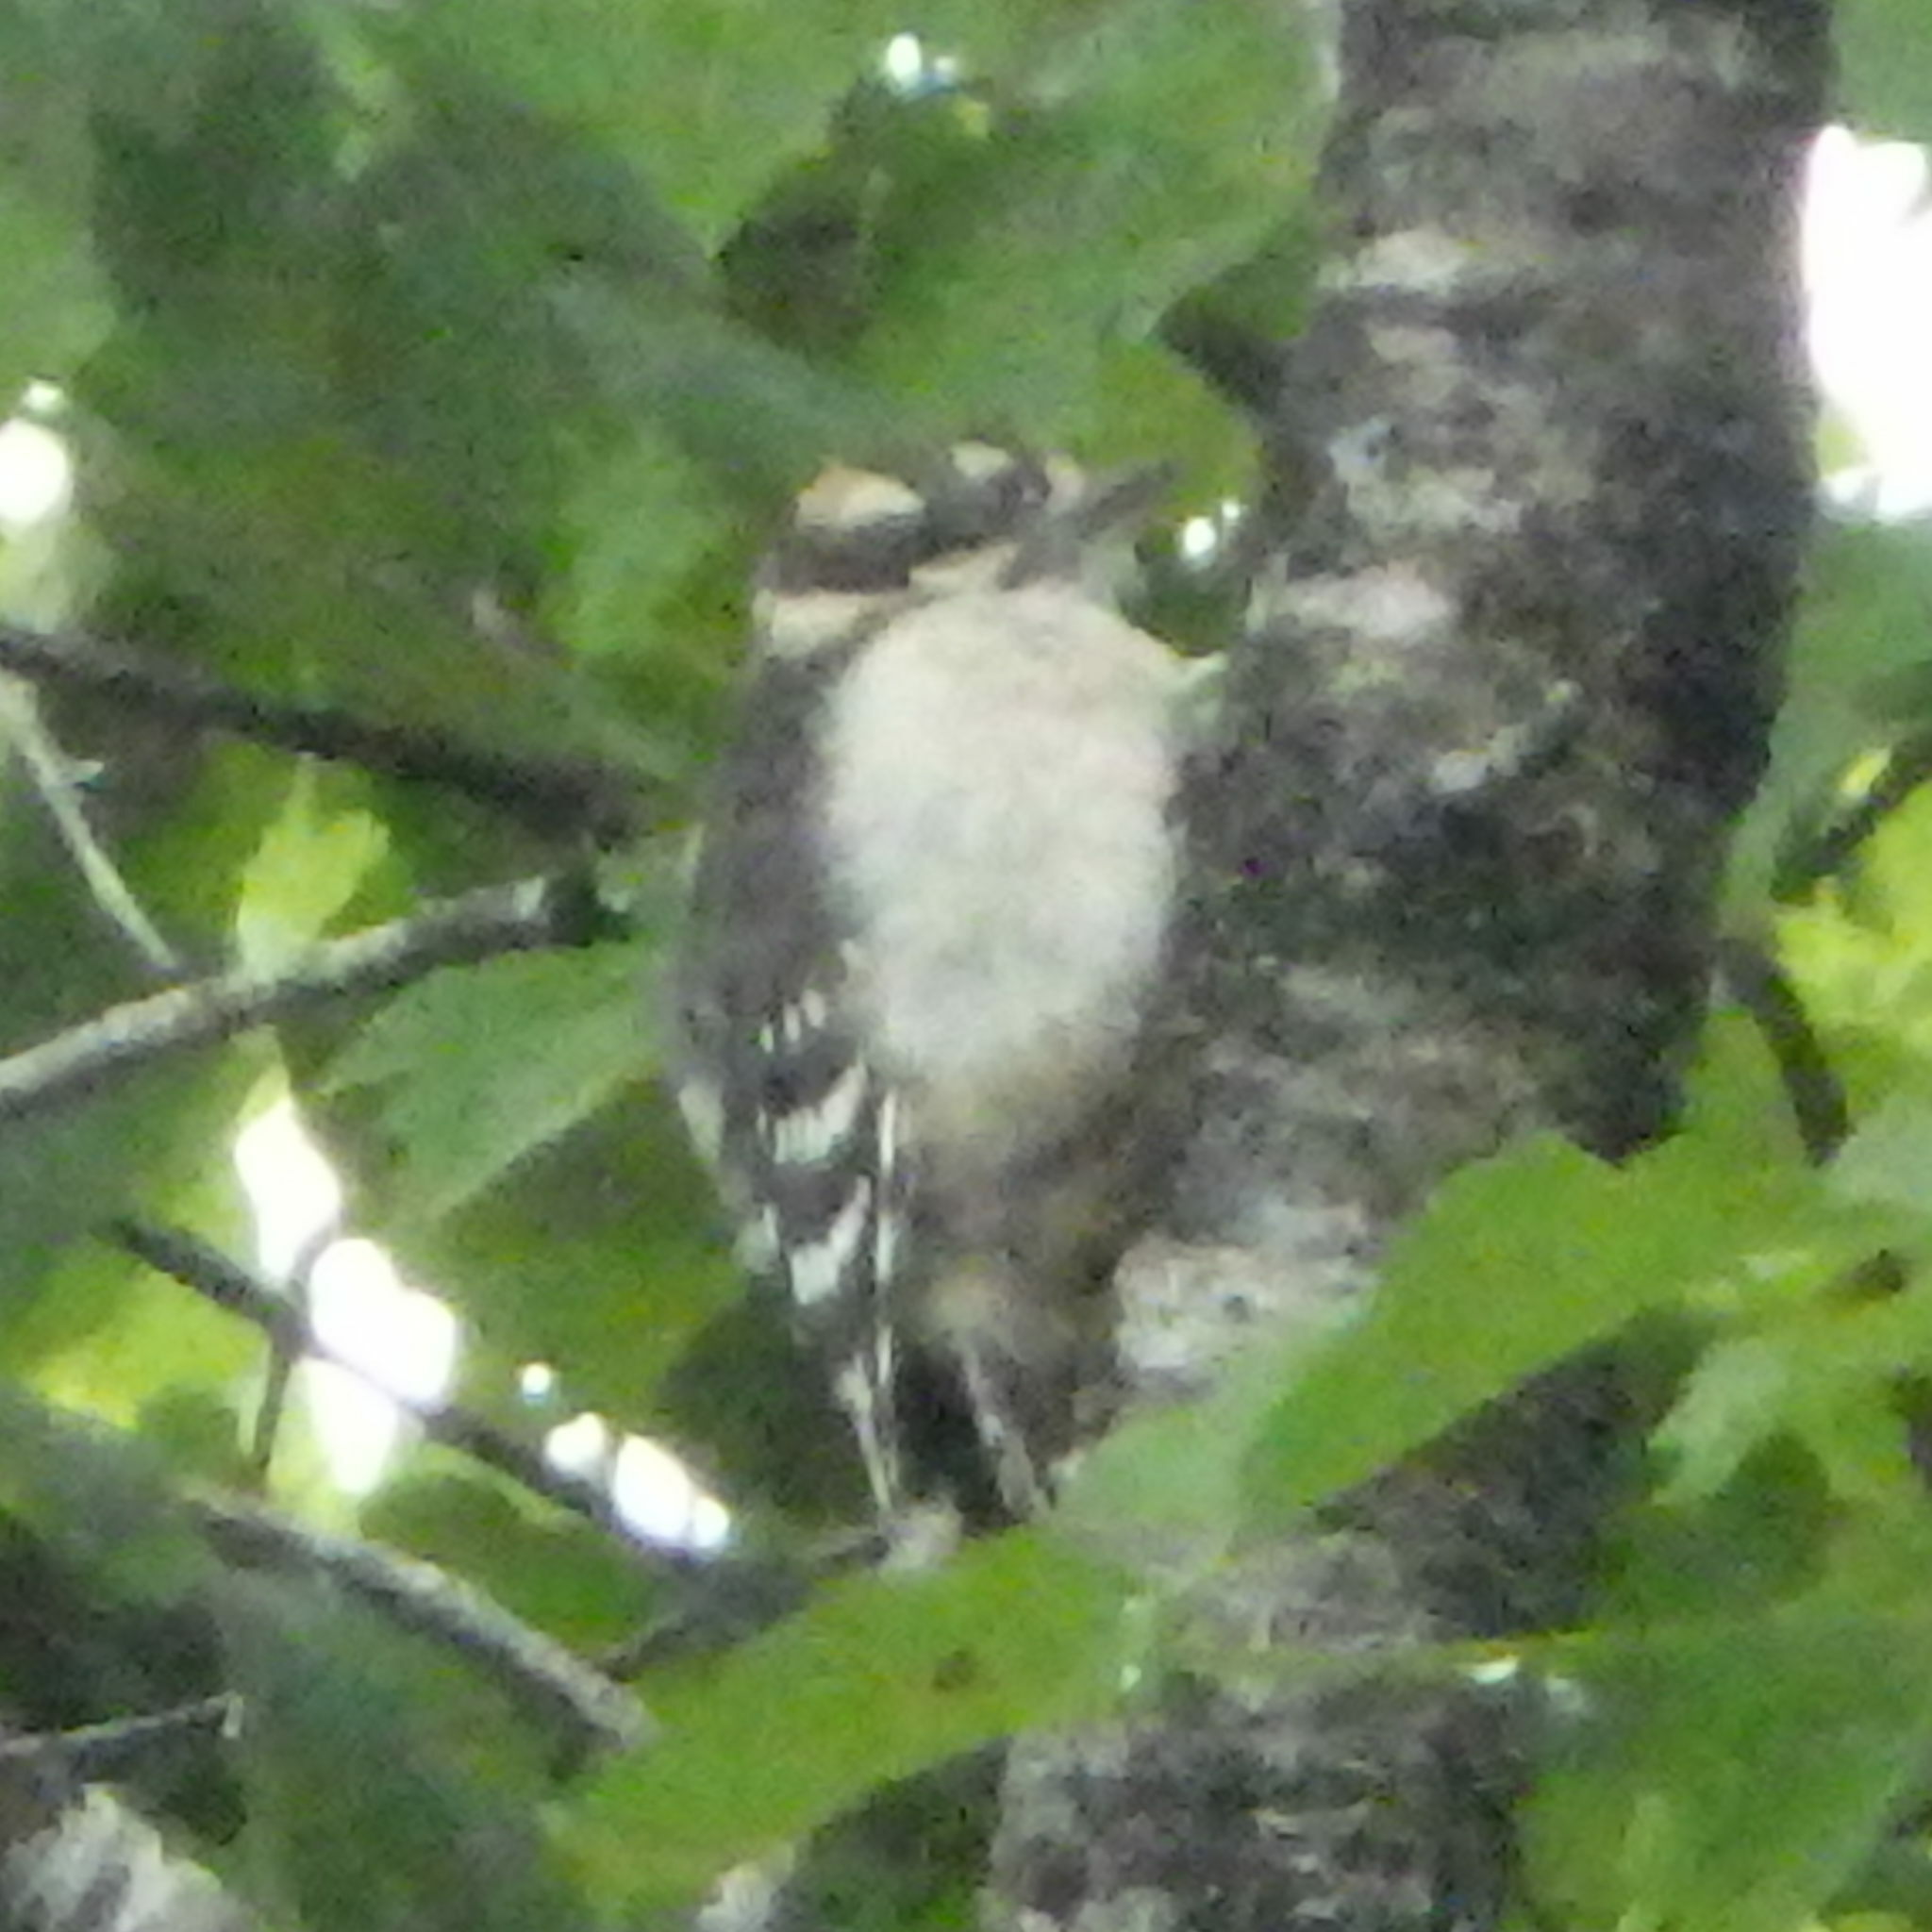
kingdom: Animalia
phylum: Chordata
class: Aves
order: Piciformes
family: Picidae
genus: Dryobates
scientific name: Dryobates pubescens
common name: Downy woodpecker
